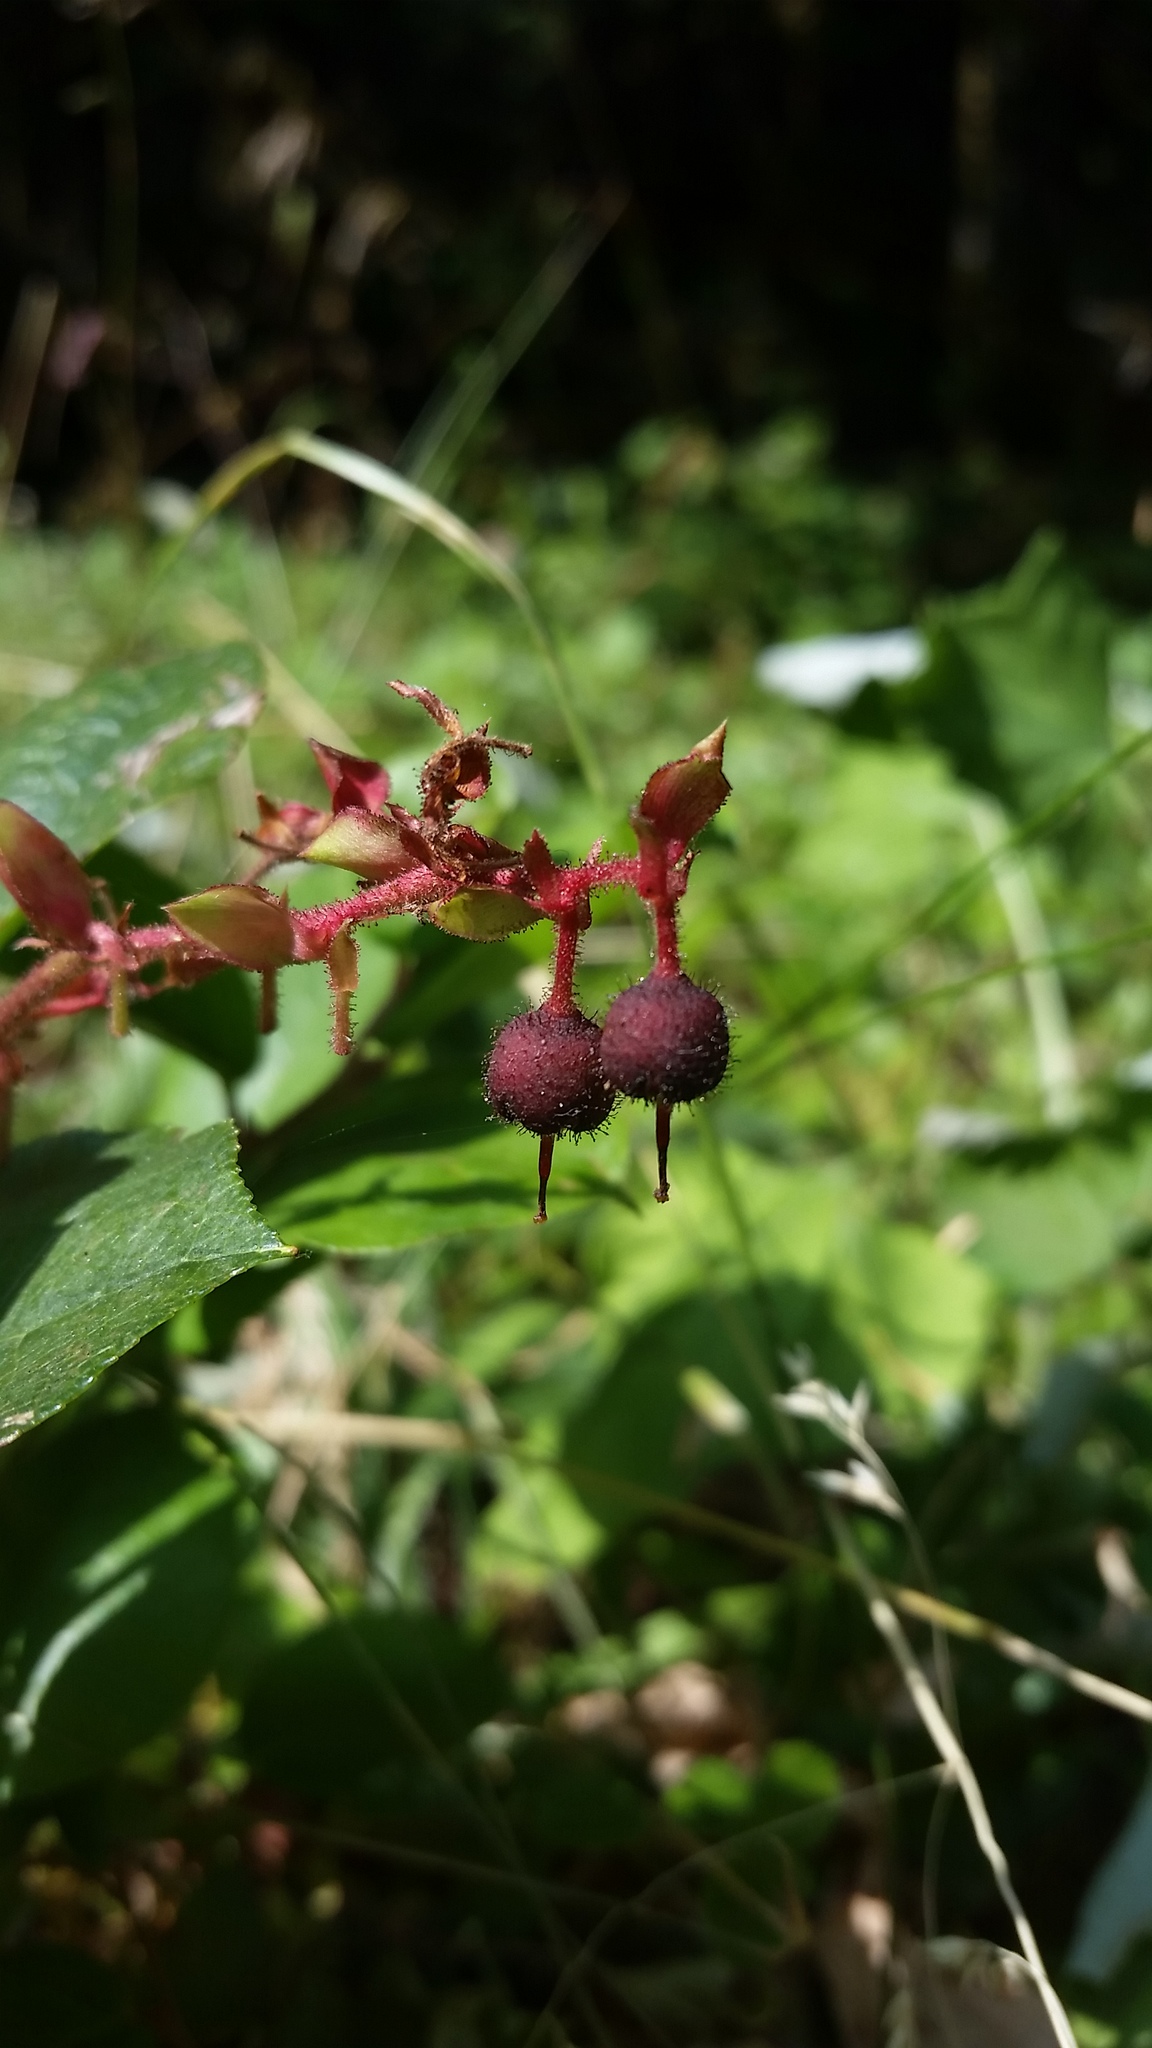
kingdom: Plantae
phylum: Tracheophyta
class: Magnoliopsida
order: Ericales
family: Ericaceae
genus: Gaultheria
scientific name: Gaultheria shallon
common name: Shallon
